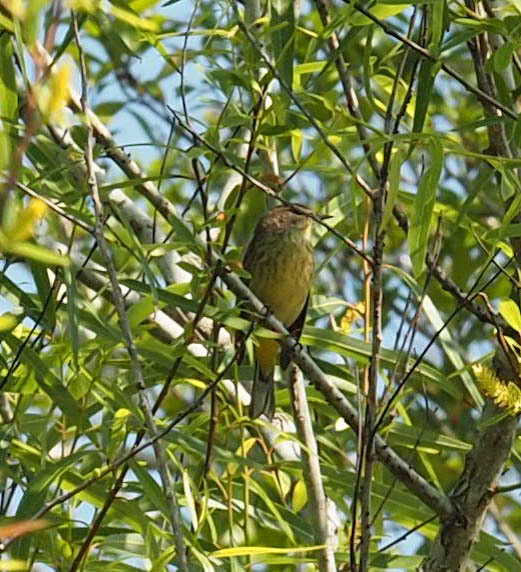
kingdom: Animalia
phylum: Chordata
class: Aves
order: Passeriformes
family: Parulidae
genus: Setophaga
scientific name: Setophaga palmarum
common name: Palm warbler
